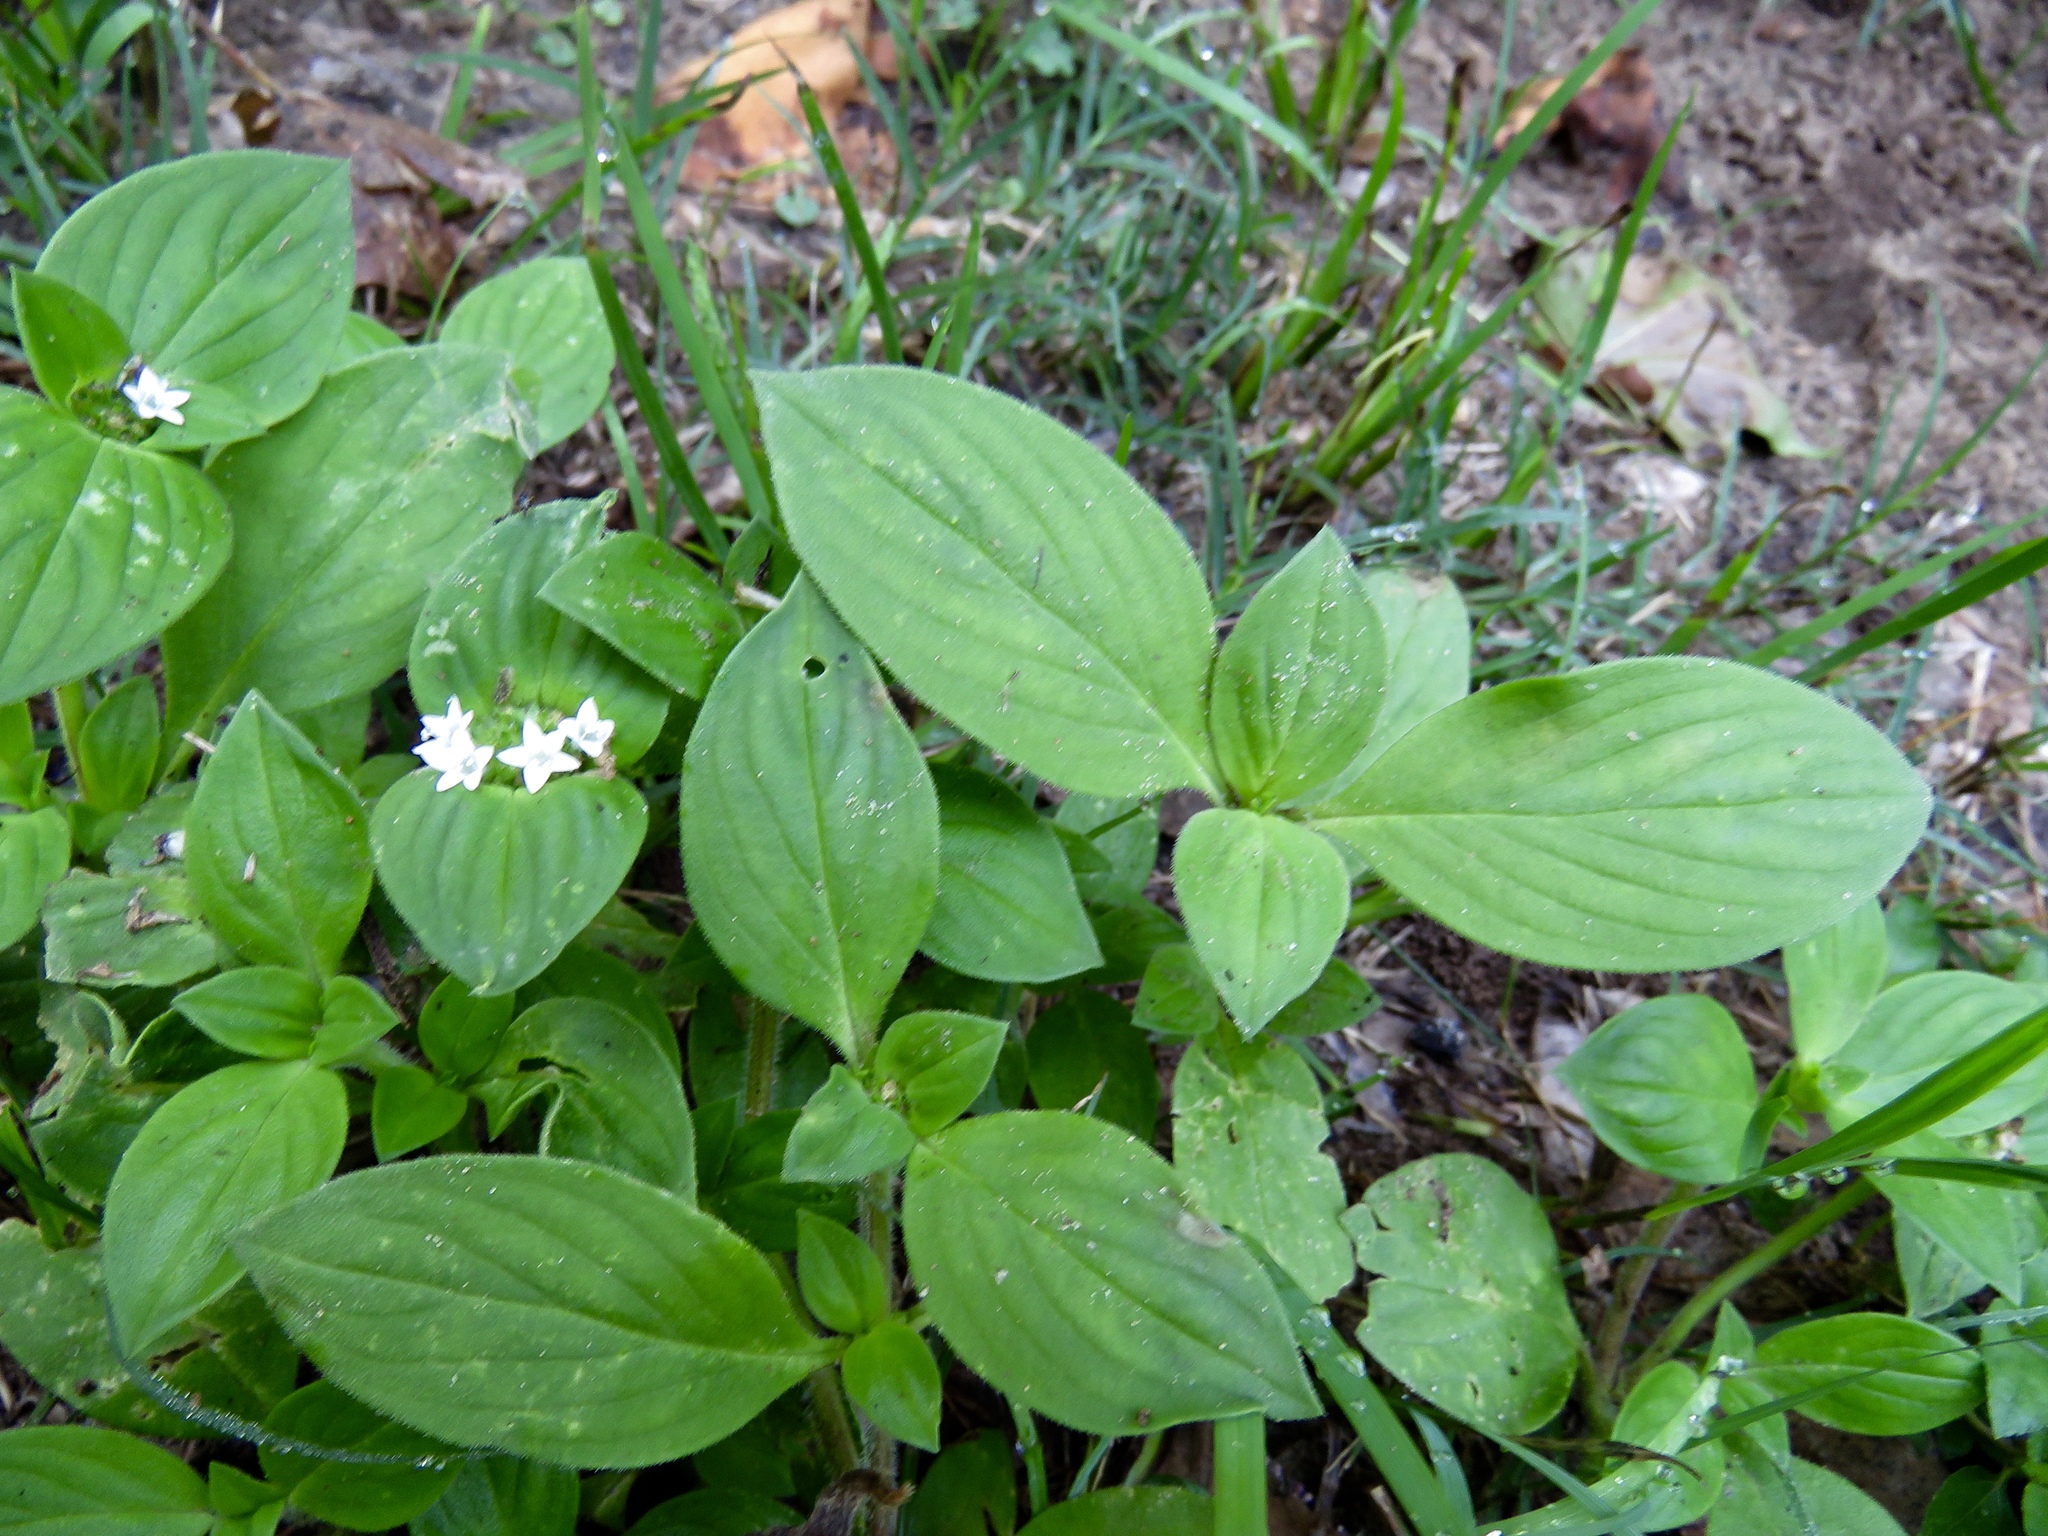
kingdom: Plantae
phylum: Tracheophyta
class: Magnoliopsida
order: Gentianales
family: Rubiaceae
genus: Richardia
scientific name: Richardia brasiliensis
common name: Tropical mexican clover
